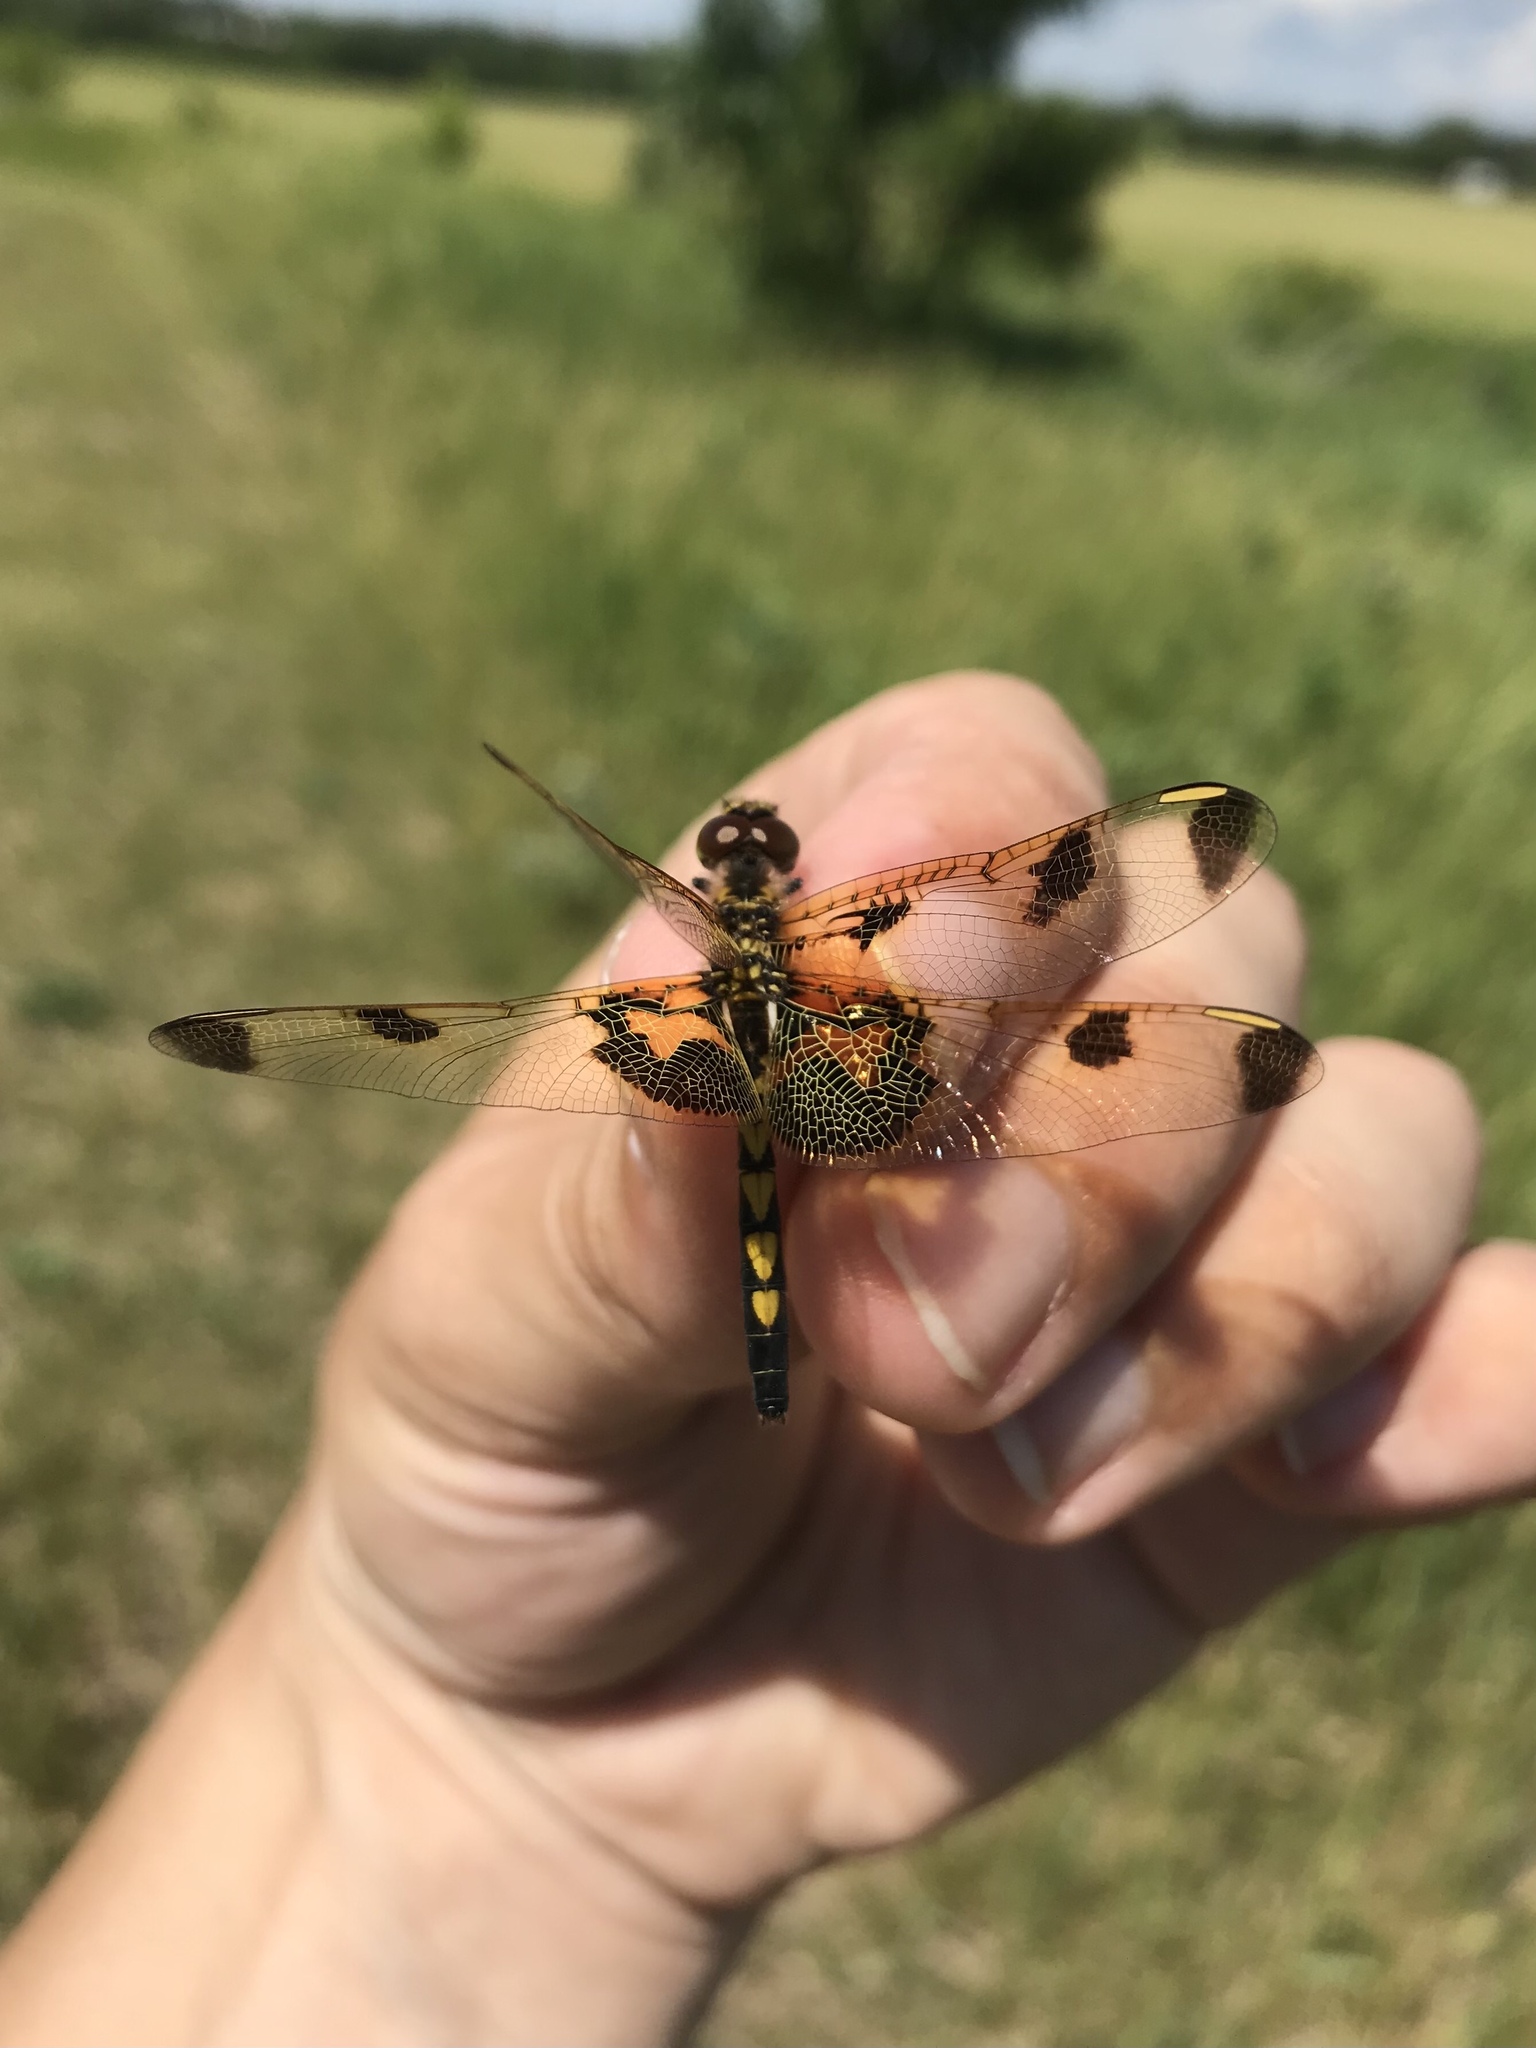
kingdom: Animalia
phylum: Arthropoda
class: Insecta
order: Odonata
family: Libellulidae
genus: Celithemis
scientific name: Celithemis elisa
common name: Calico pennant
